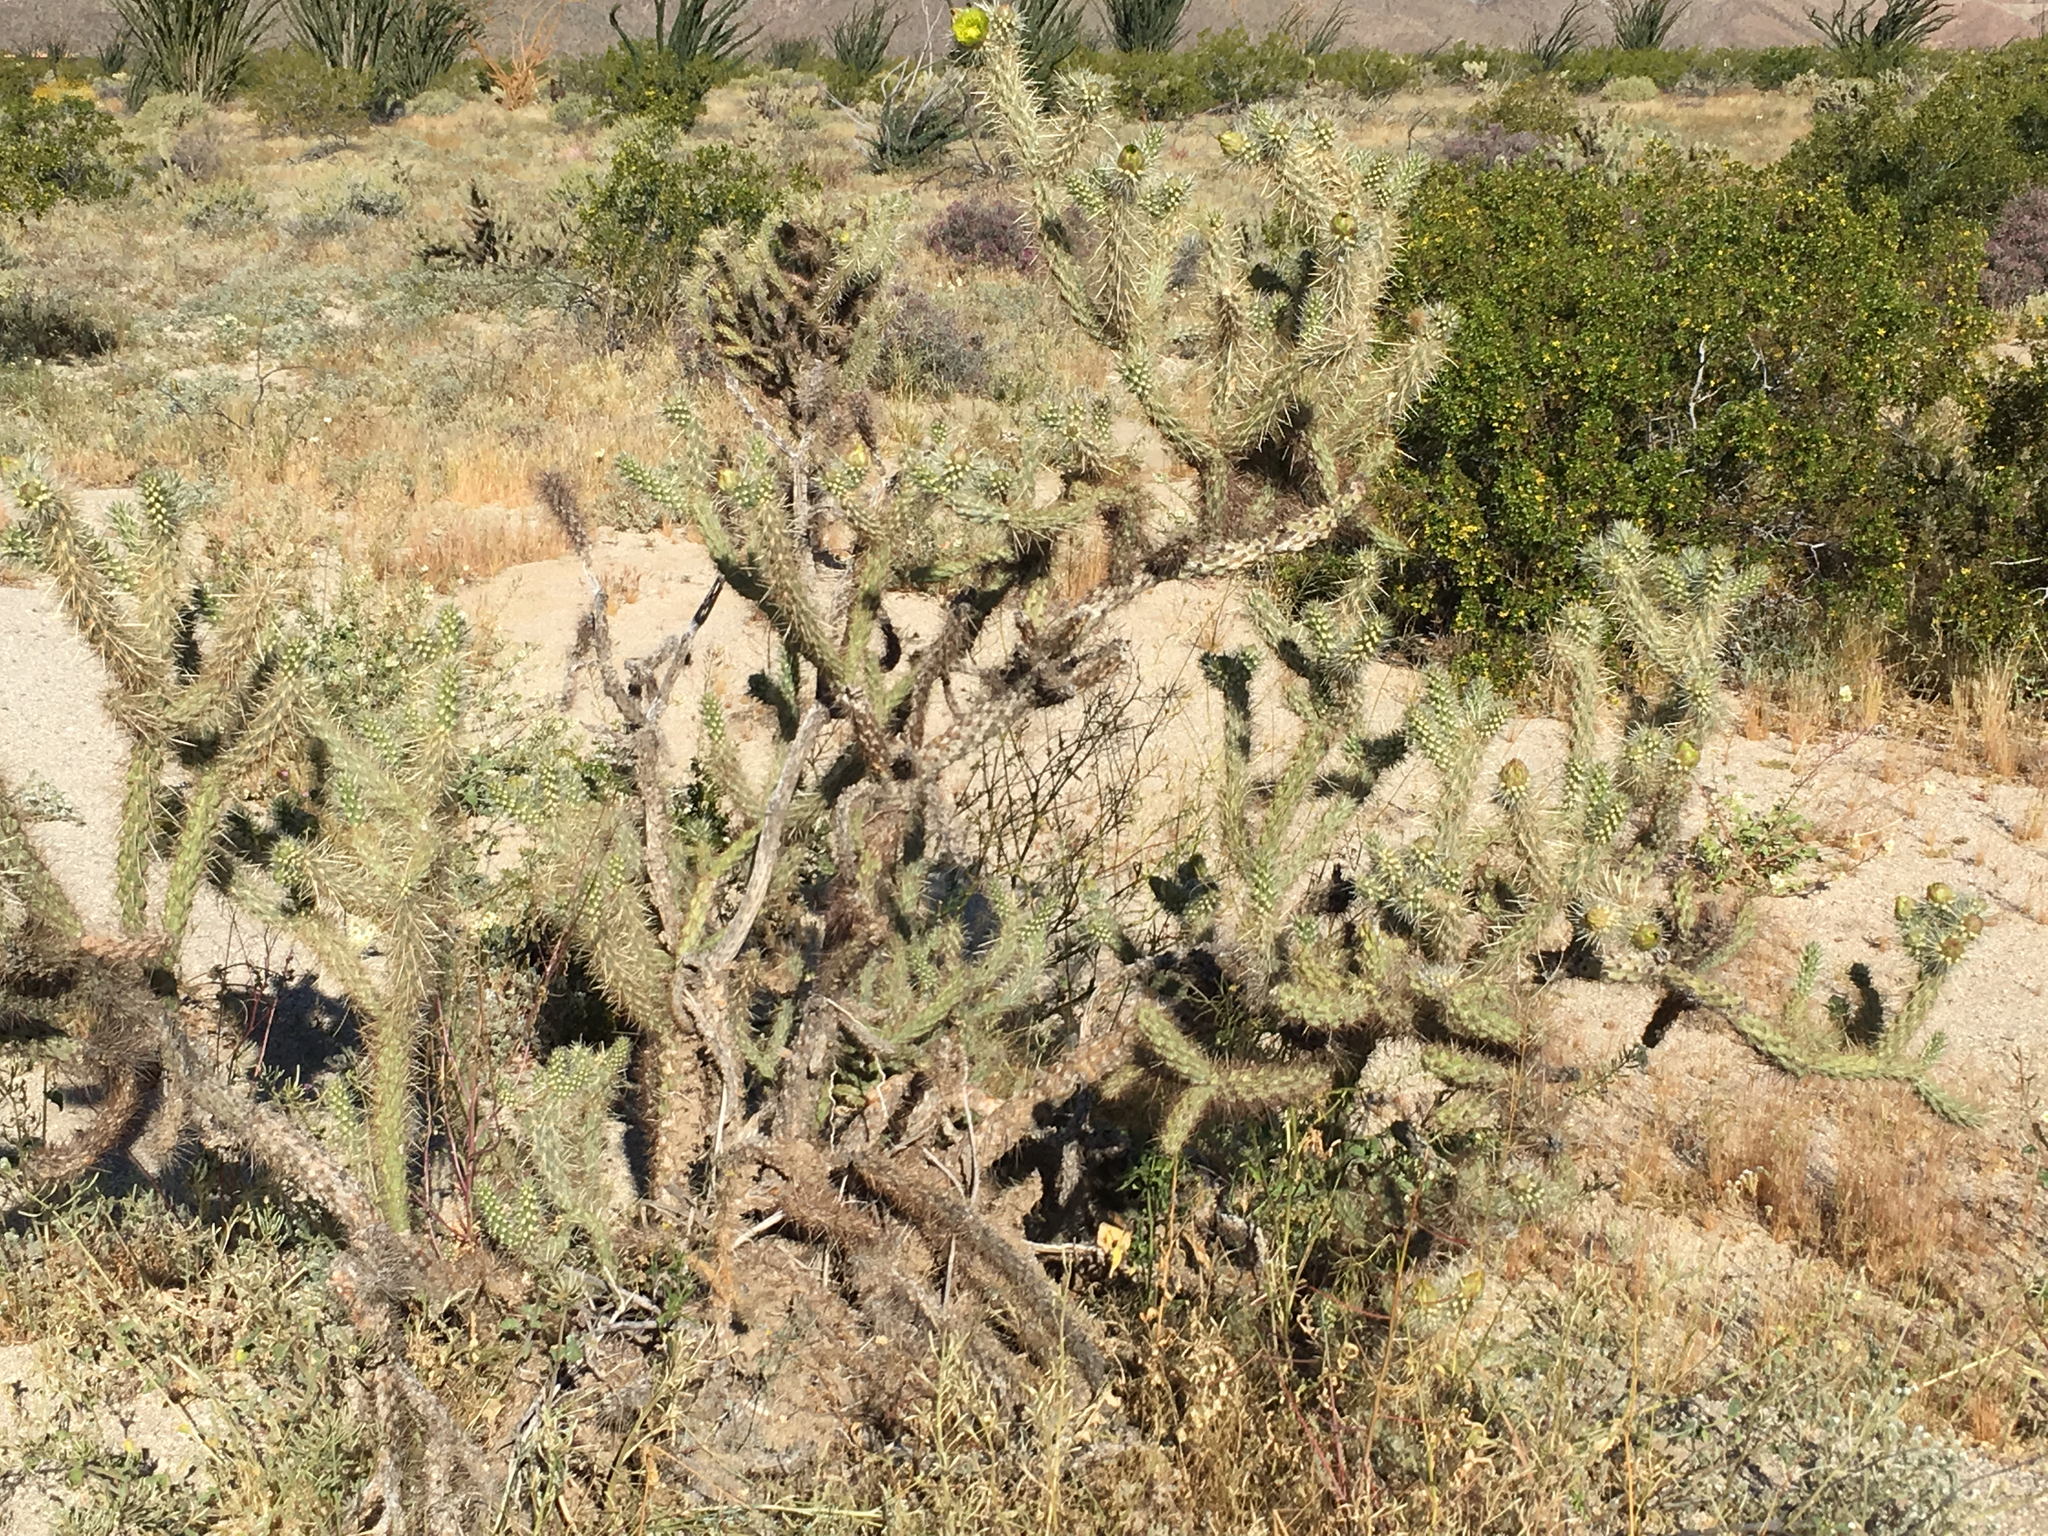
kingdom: Plantae
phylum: Tracheophyta
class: Magnoliopsida
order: Caryophyllales
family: Cactaceae
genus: Cylindropuntia
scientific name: Cylindropuntia ganderi
